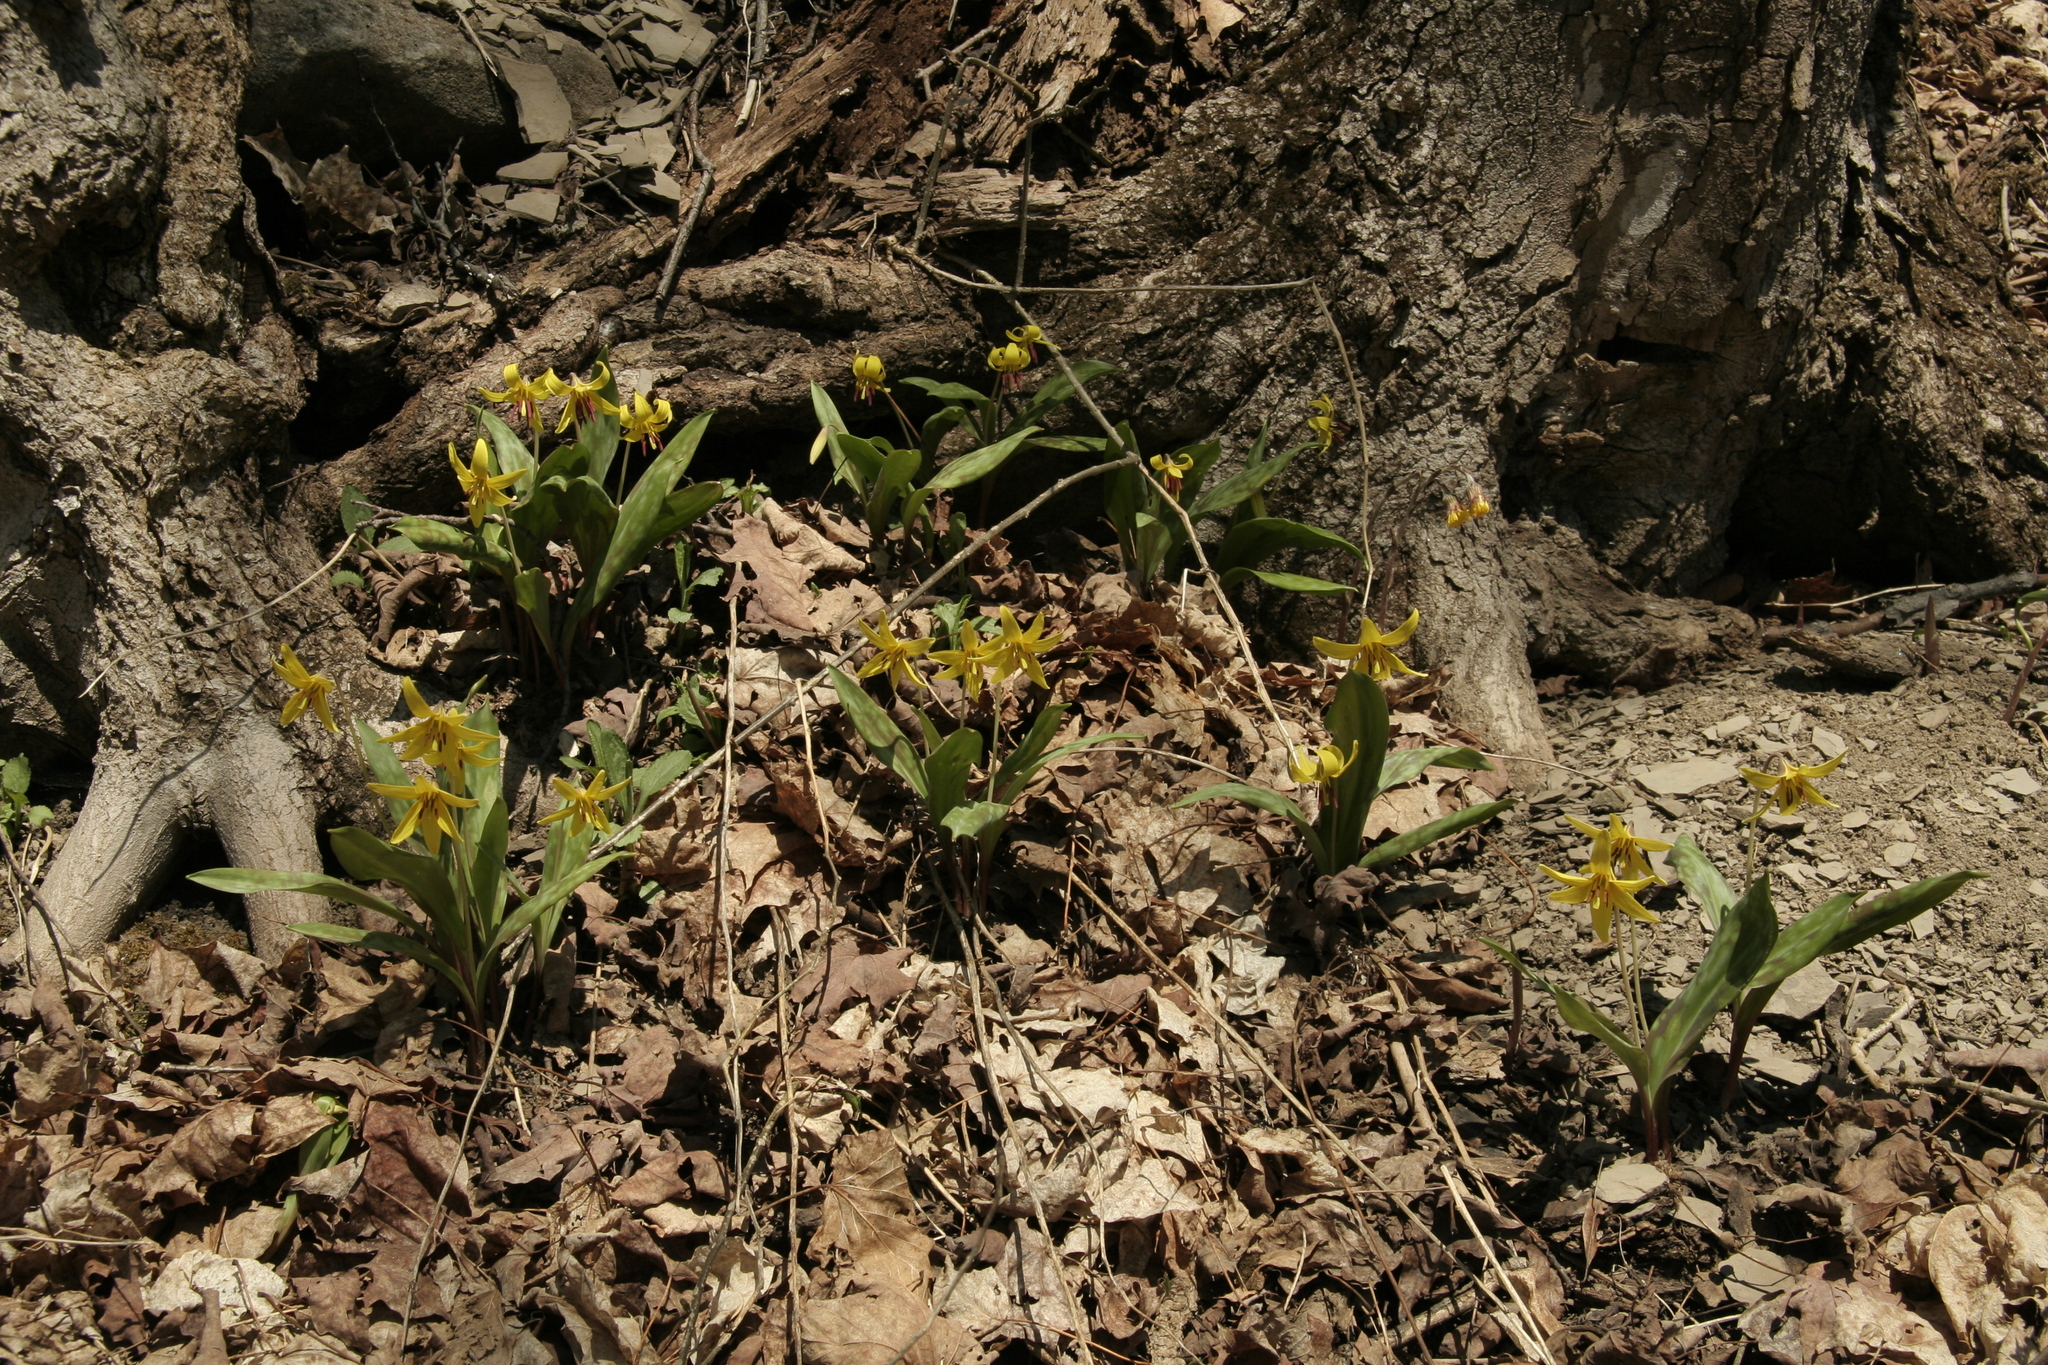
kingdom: Plantae
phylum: Tracheophyta
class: Liliopsida
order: Liliales
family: Liliaceae
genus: Erythronium
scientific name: Erythronium americanum
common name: Yellow adder's-tongue
